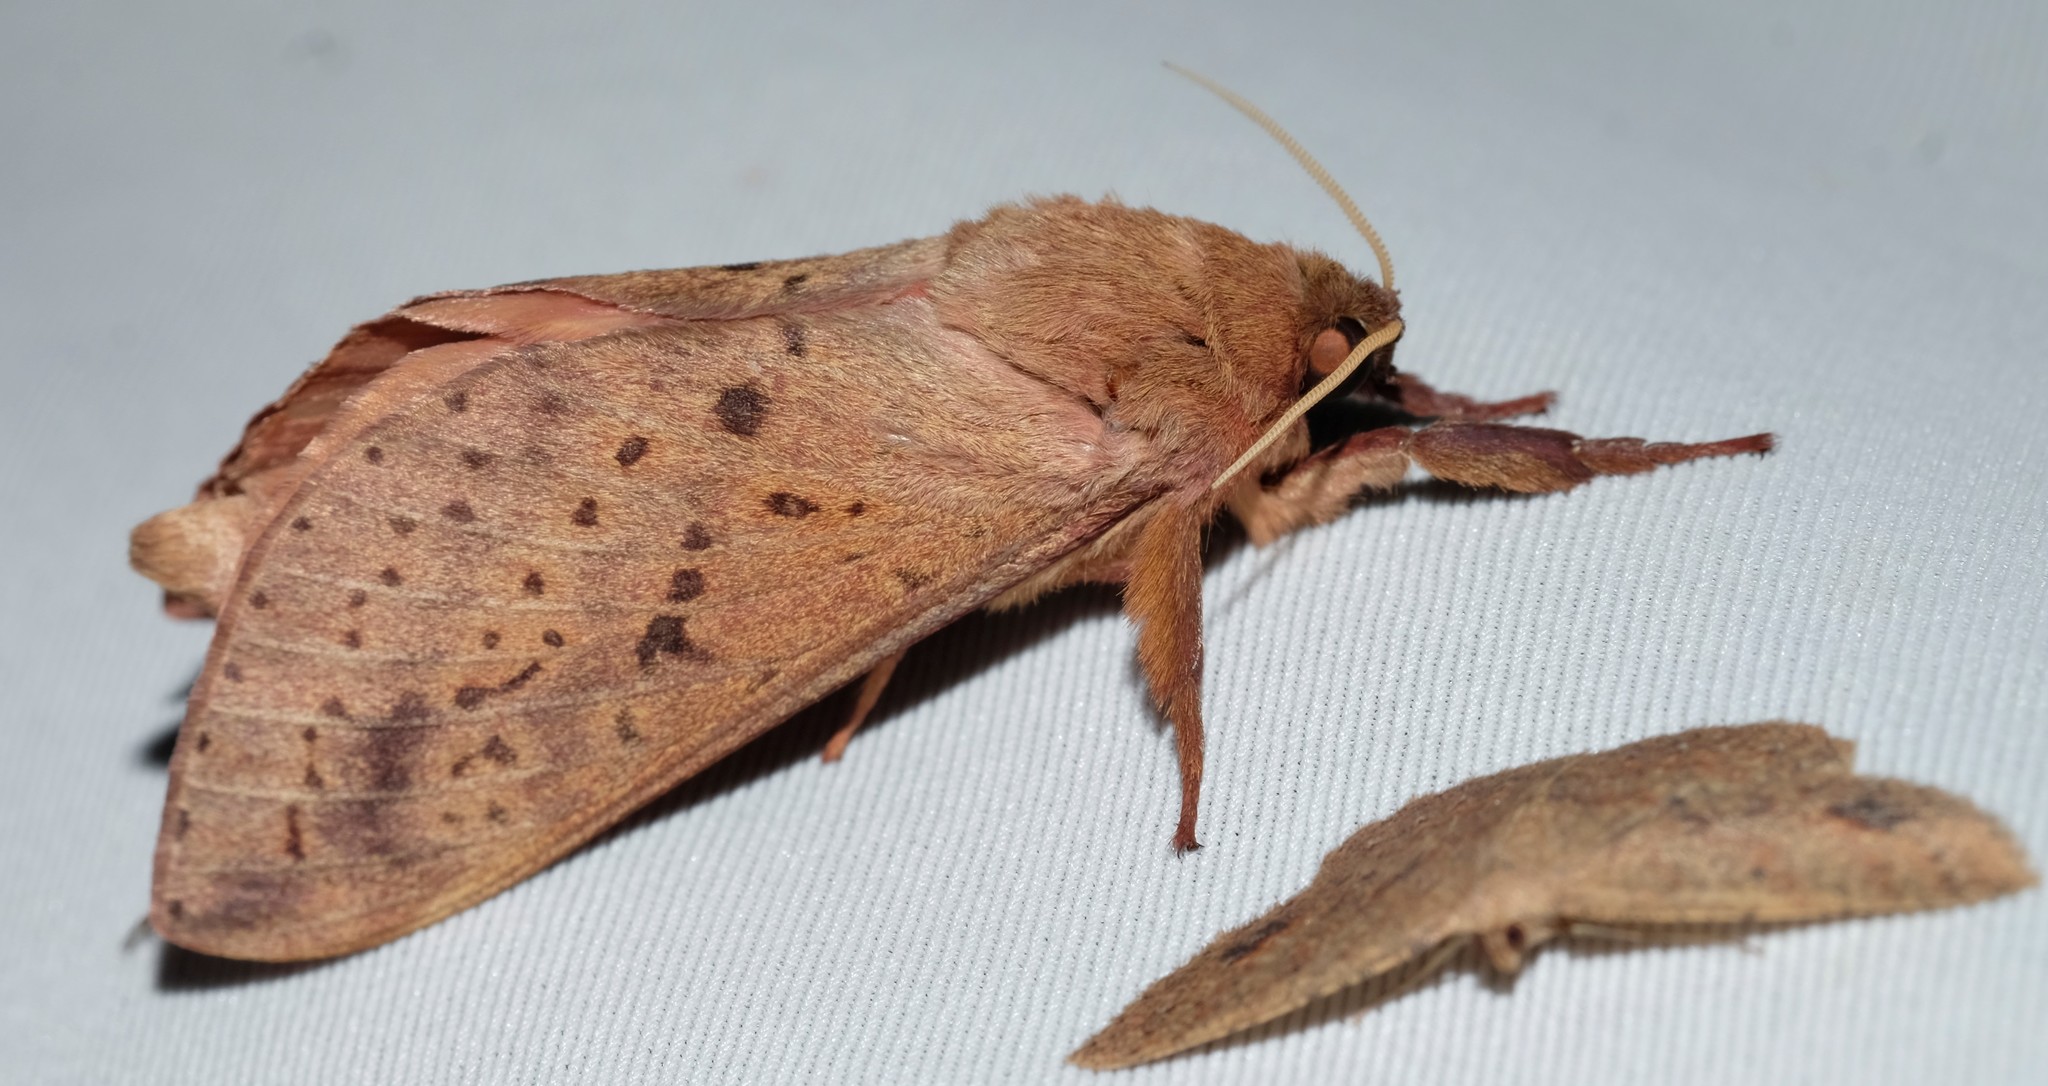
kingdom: Animalia
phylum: Arthropoda
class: Insecta
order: Lepidoptera
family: Hepialidae
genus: Oxycanus
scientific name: Oxycanus sirpus
